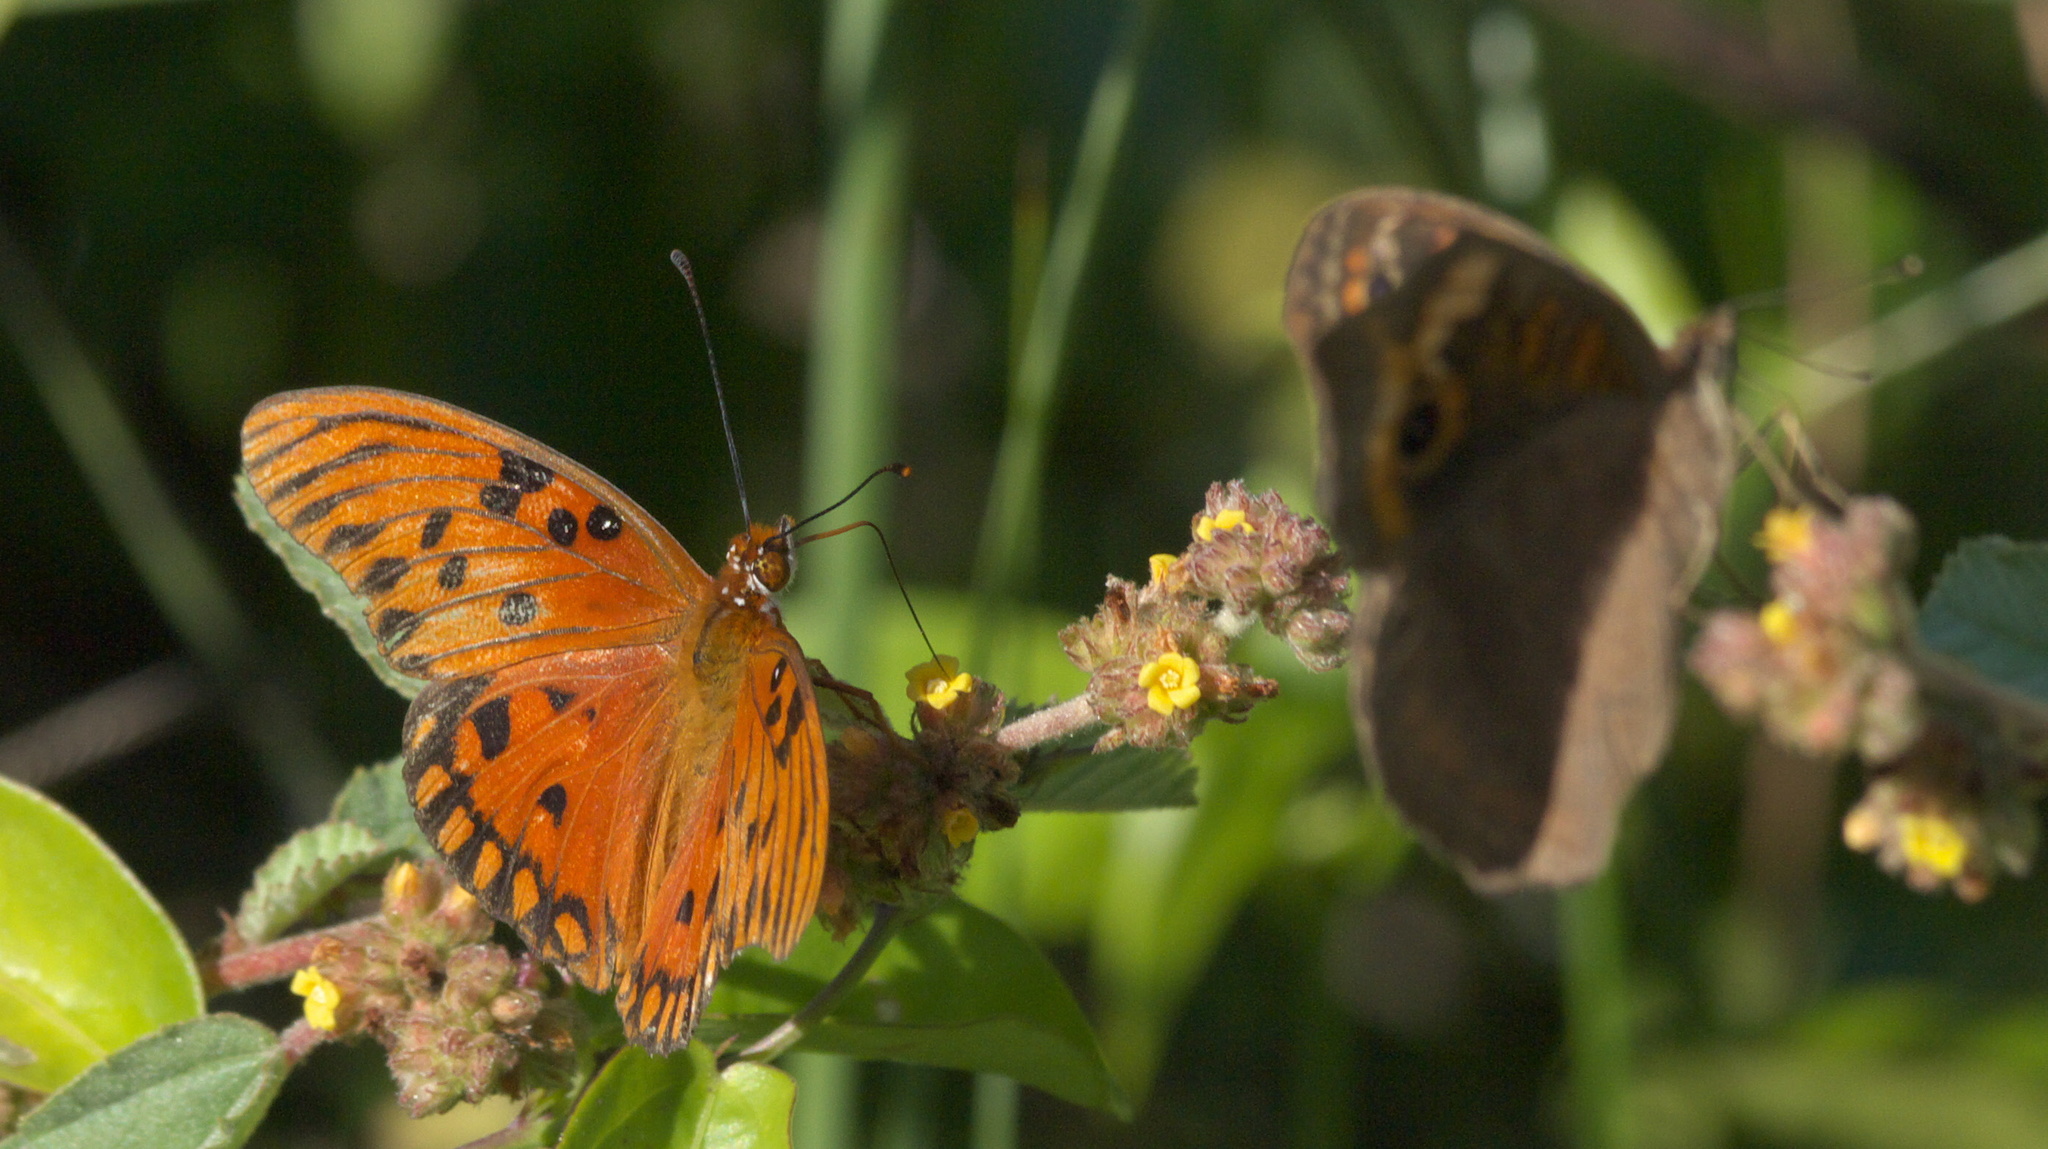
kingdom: Animalia
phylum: Arthropoda
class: Insecta
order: Lepidoptera
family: Nymphalidae
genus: Dione
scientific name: Dione vanillae
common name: Gulf fritillary
